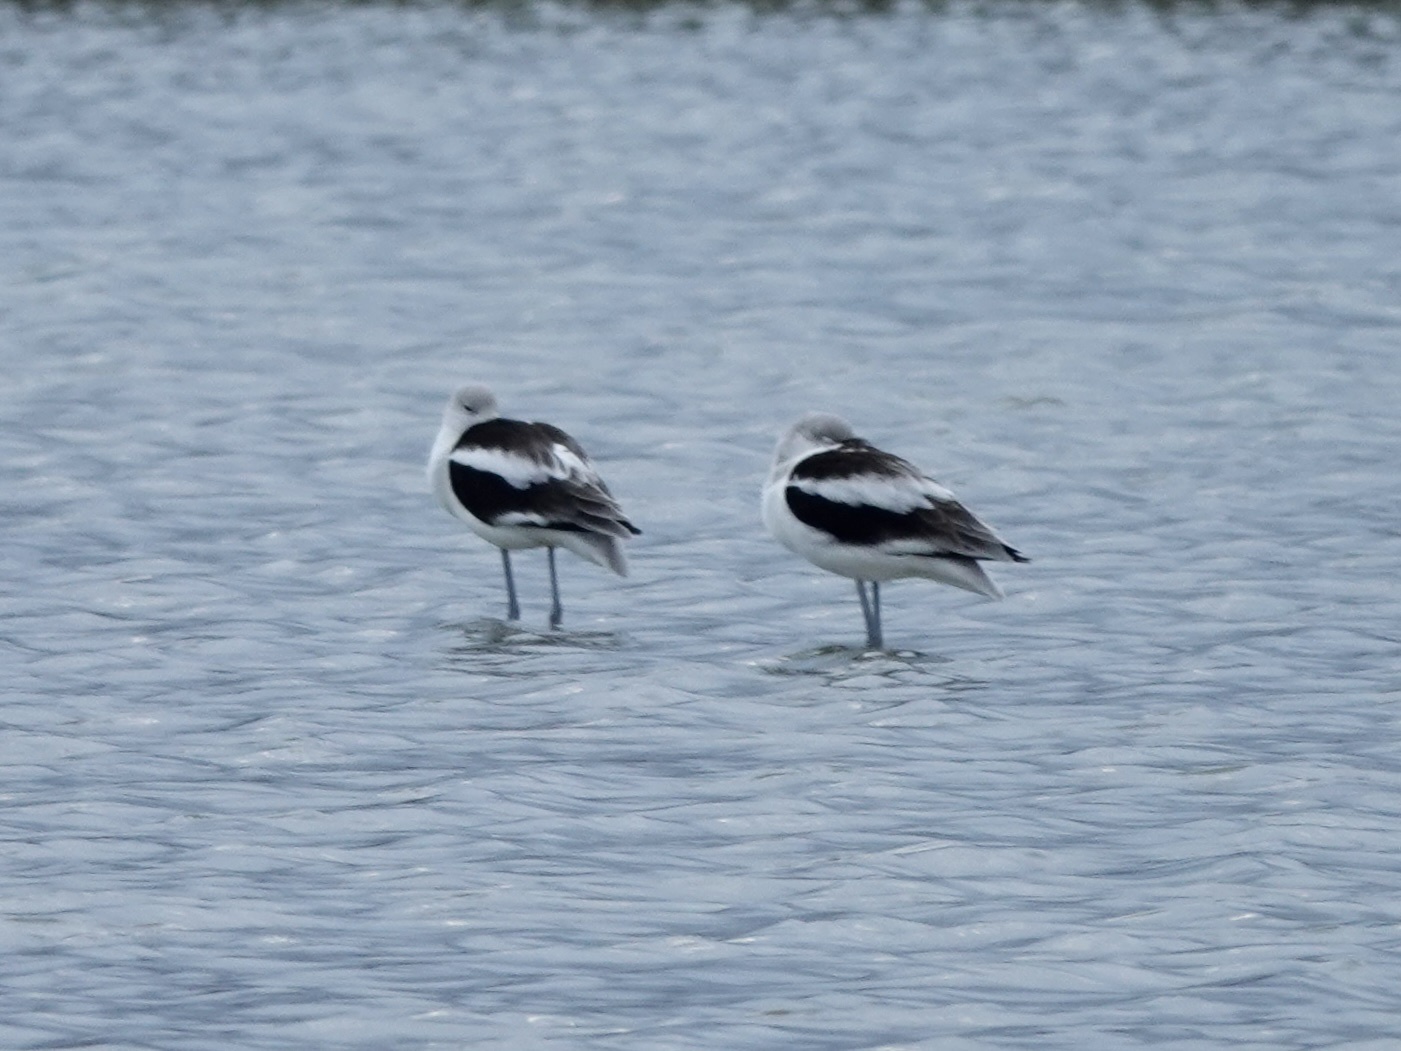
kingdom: Animalia
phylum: Chordata
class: Aves
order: Charadriiformes
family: Recurvirostridae
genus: Recurvirostra
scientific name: Recurvirostra americana
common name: American avocet
